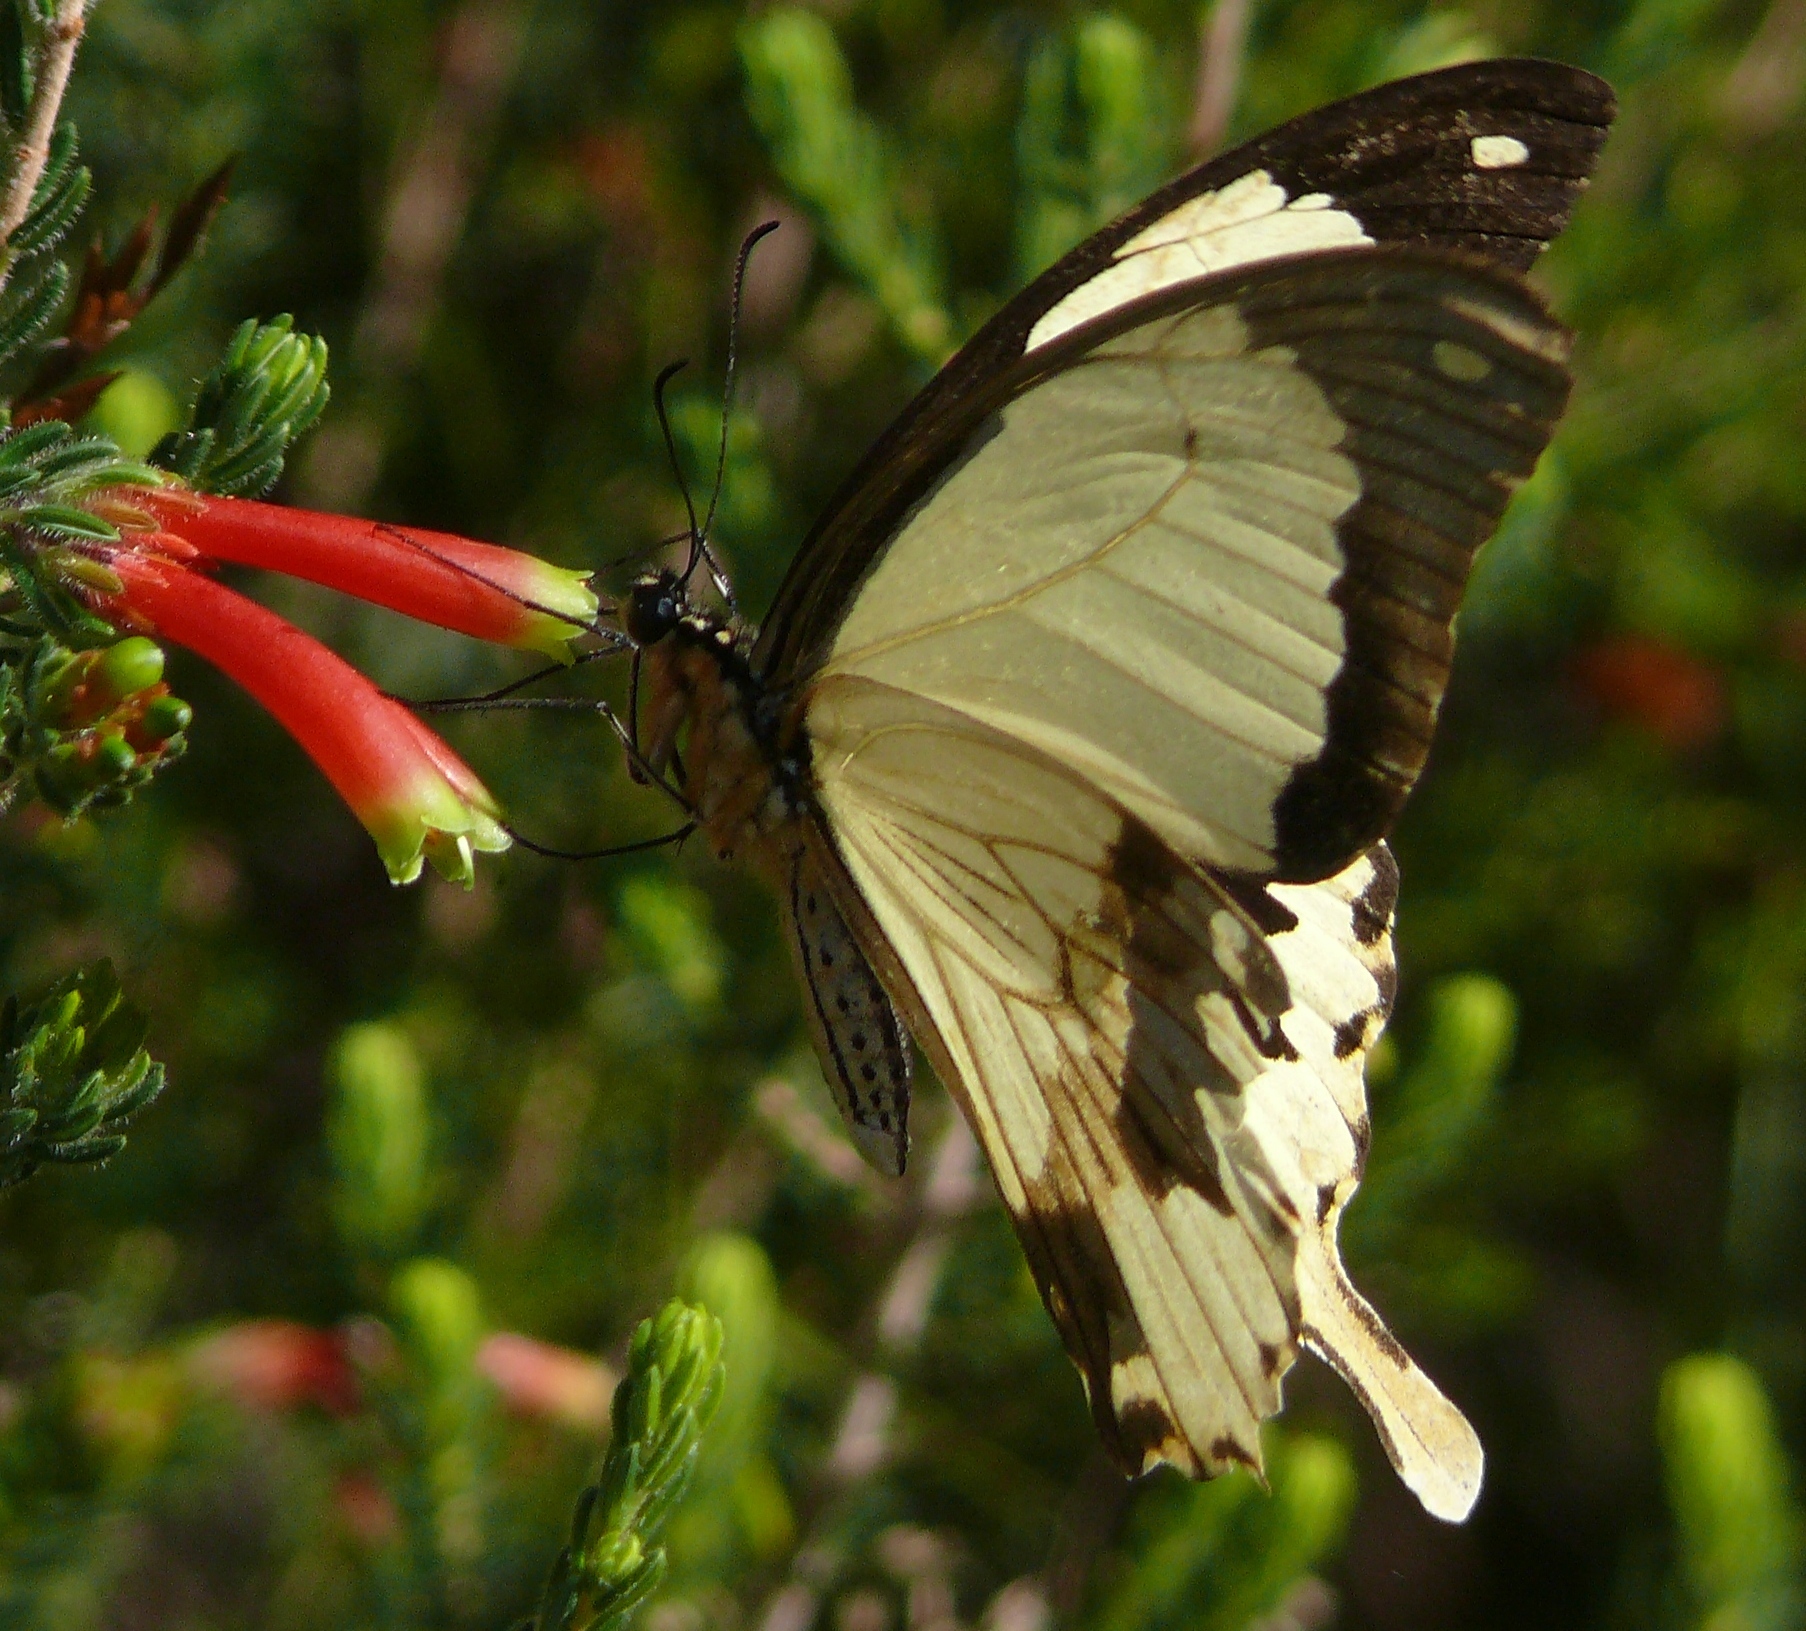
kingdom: Plantae
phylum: Tracheophyta
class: Magnoliopsida
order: Ericales
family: Ericaceae
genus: Erica
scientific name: Erica discolor
